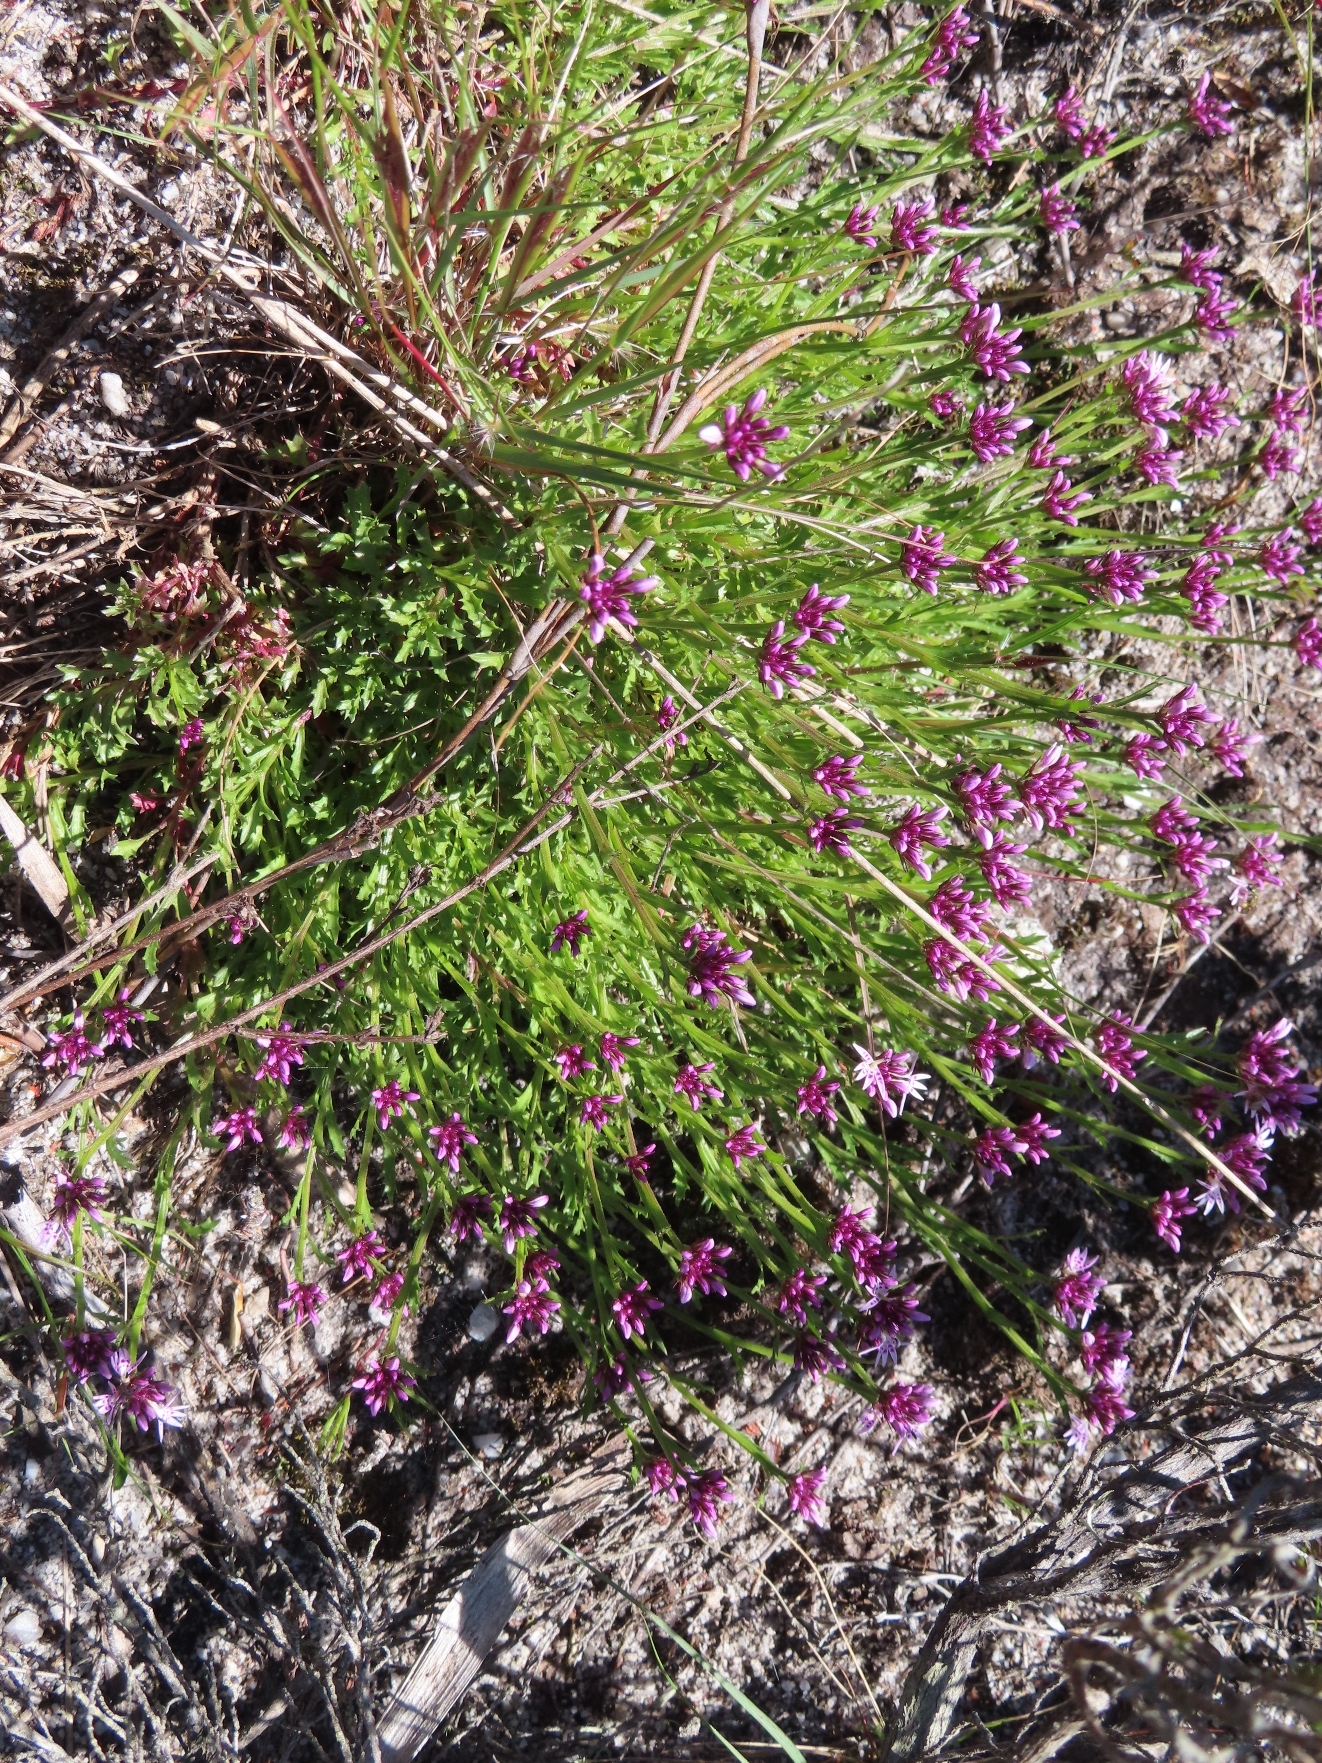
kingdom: Plantae
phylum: Tracheophyta
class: Magnoliopsida
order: Asterales
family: Campanulaceae
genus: Lobelia
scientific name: Lobelia jasionoides
